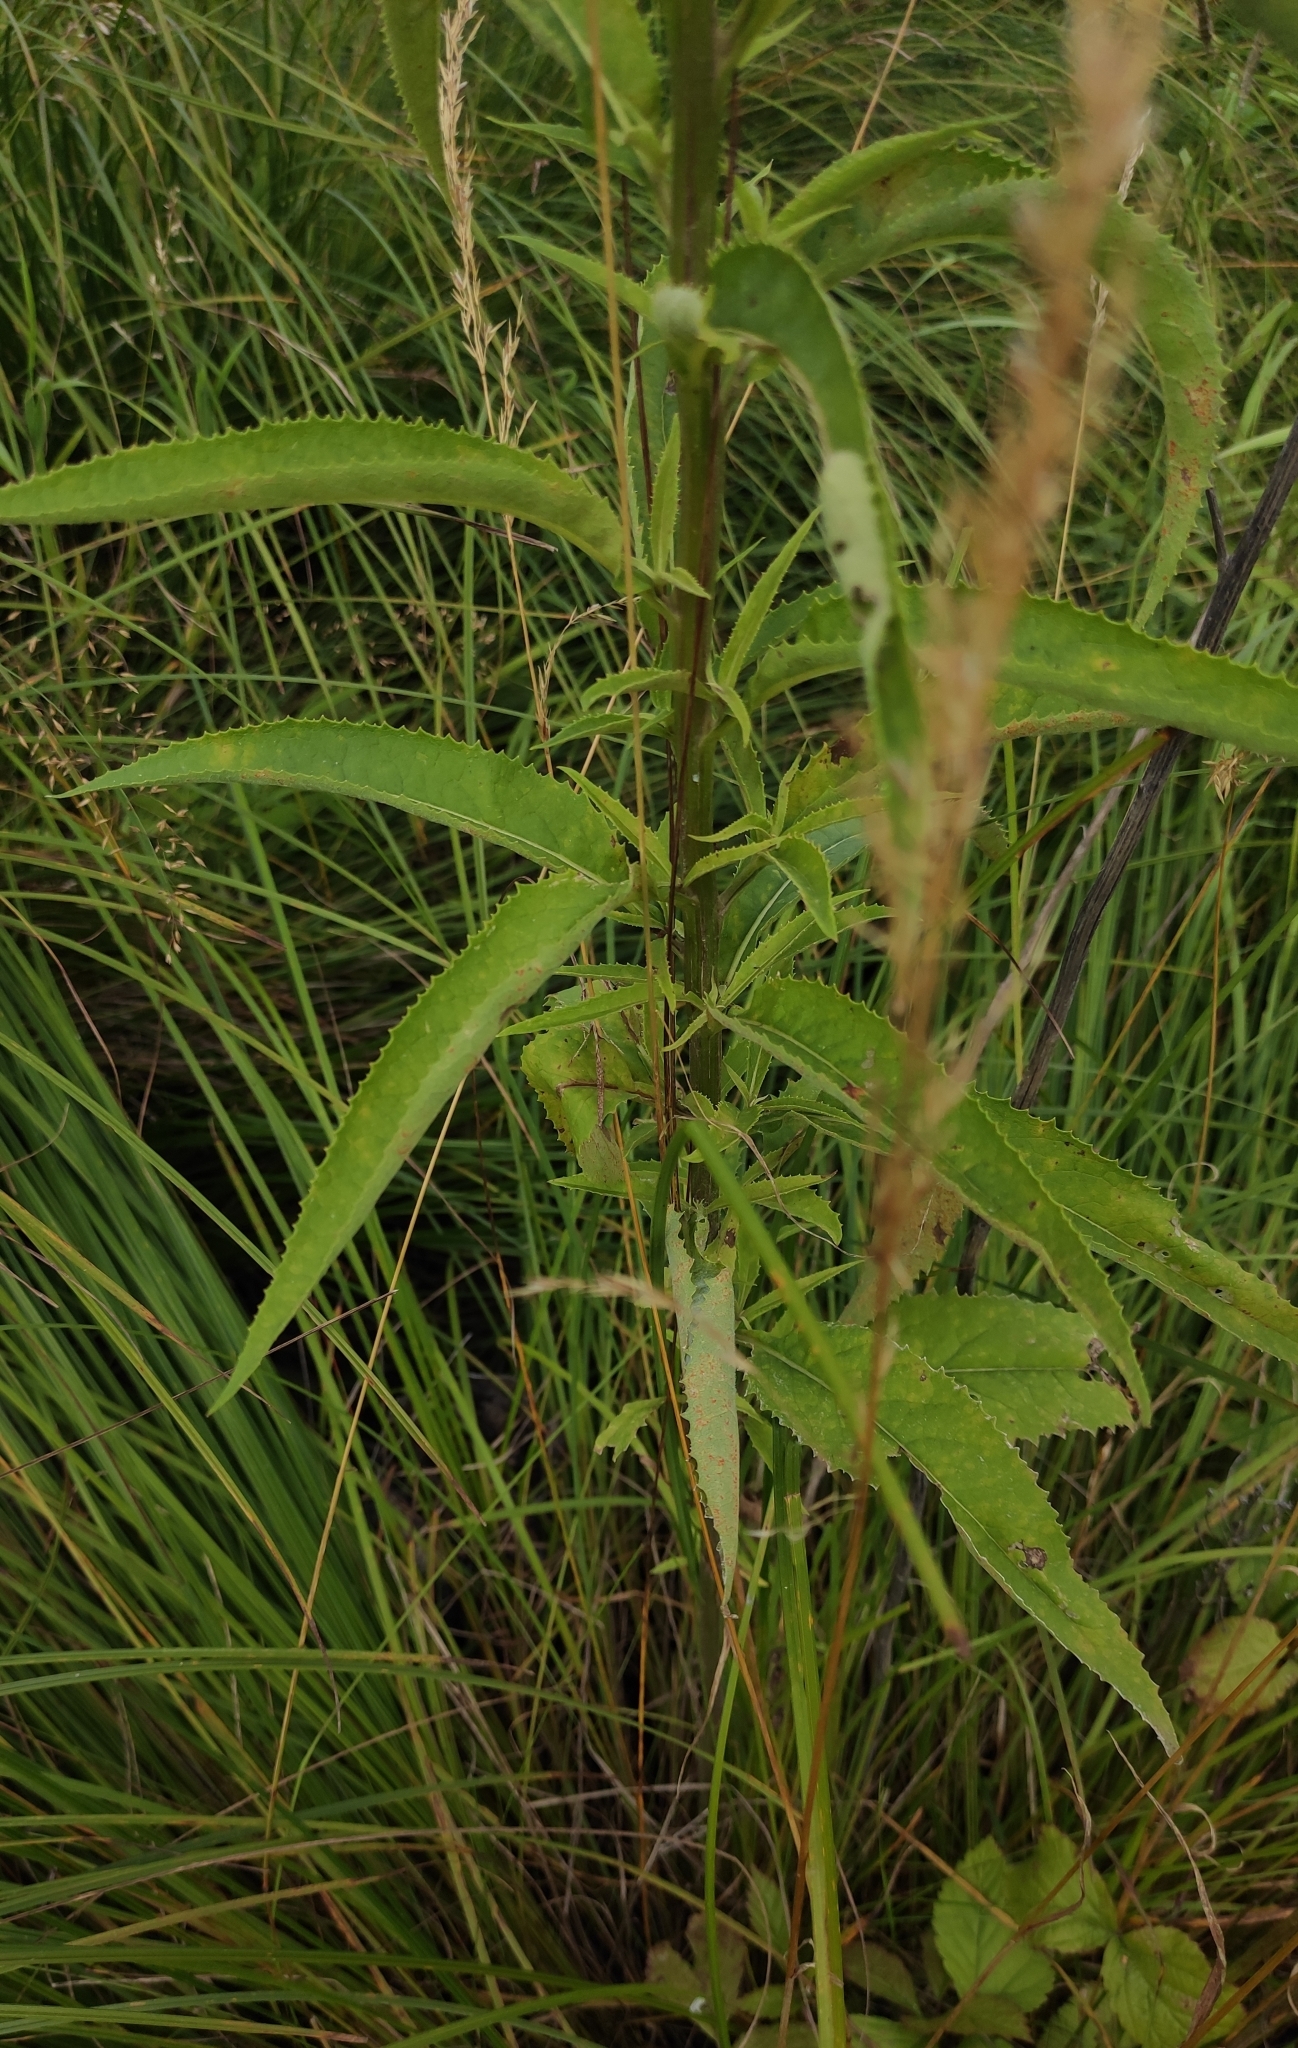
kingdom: Plantae
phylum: Tracheophyta
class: Magnoliopsida
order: Asterales
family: Asteraceae
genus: Senecio
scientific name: Senecio nemorensis
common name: Alpine ragwort
